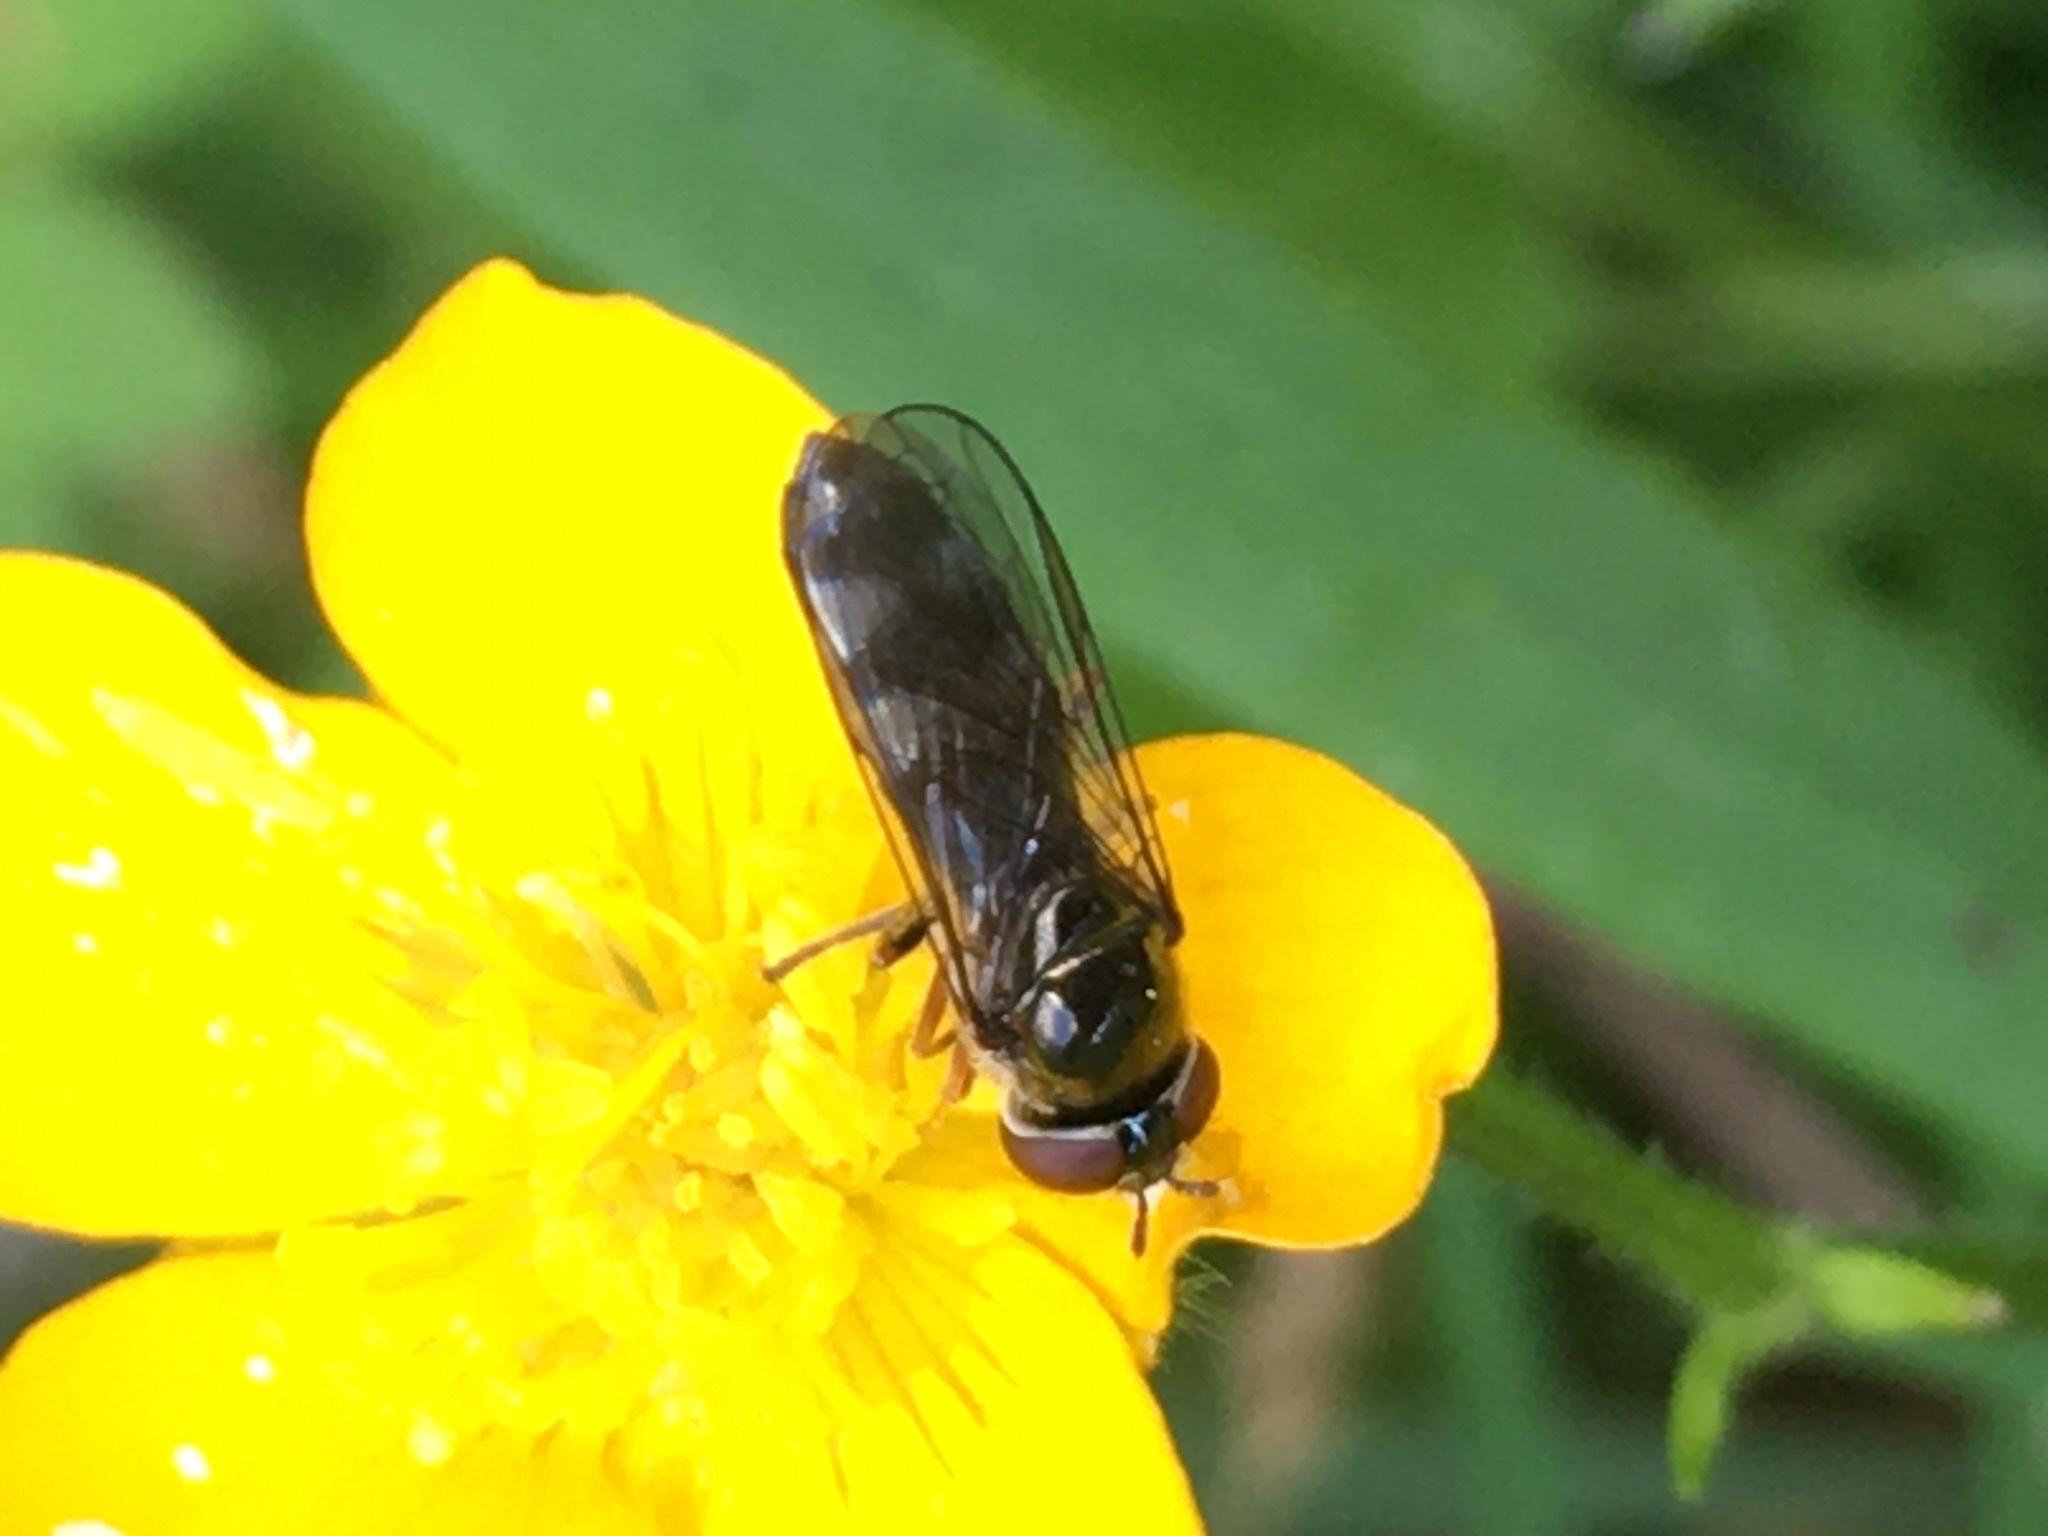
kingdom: Animalia
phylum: Arthropoda
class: Insecta
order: Diptera
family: Syrphidae
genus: Platycheirus
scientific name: Platycheirus albimanus
